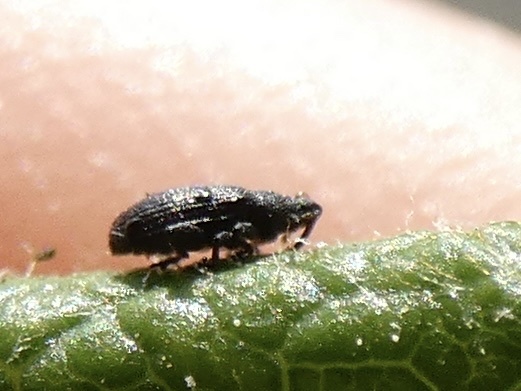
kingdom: Animalia
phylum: Arthropoda
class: Insecta
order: Coleoptera
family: Curculionidae
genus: Rhamphus
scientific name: Rhamphus pulicarius
